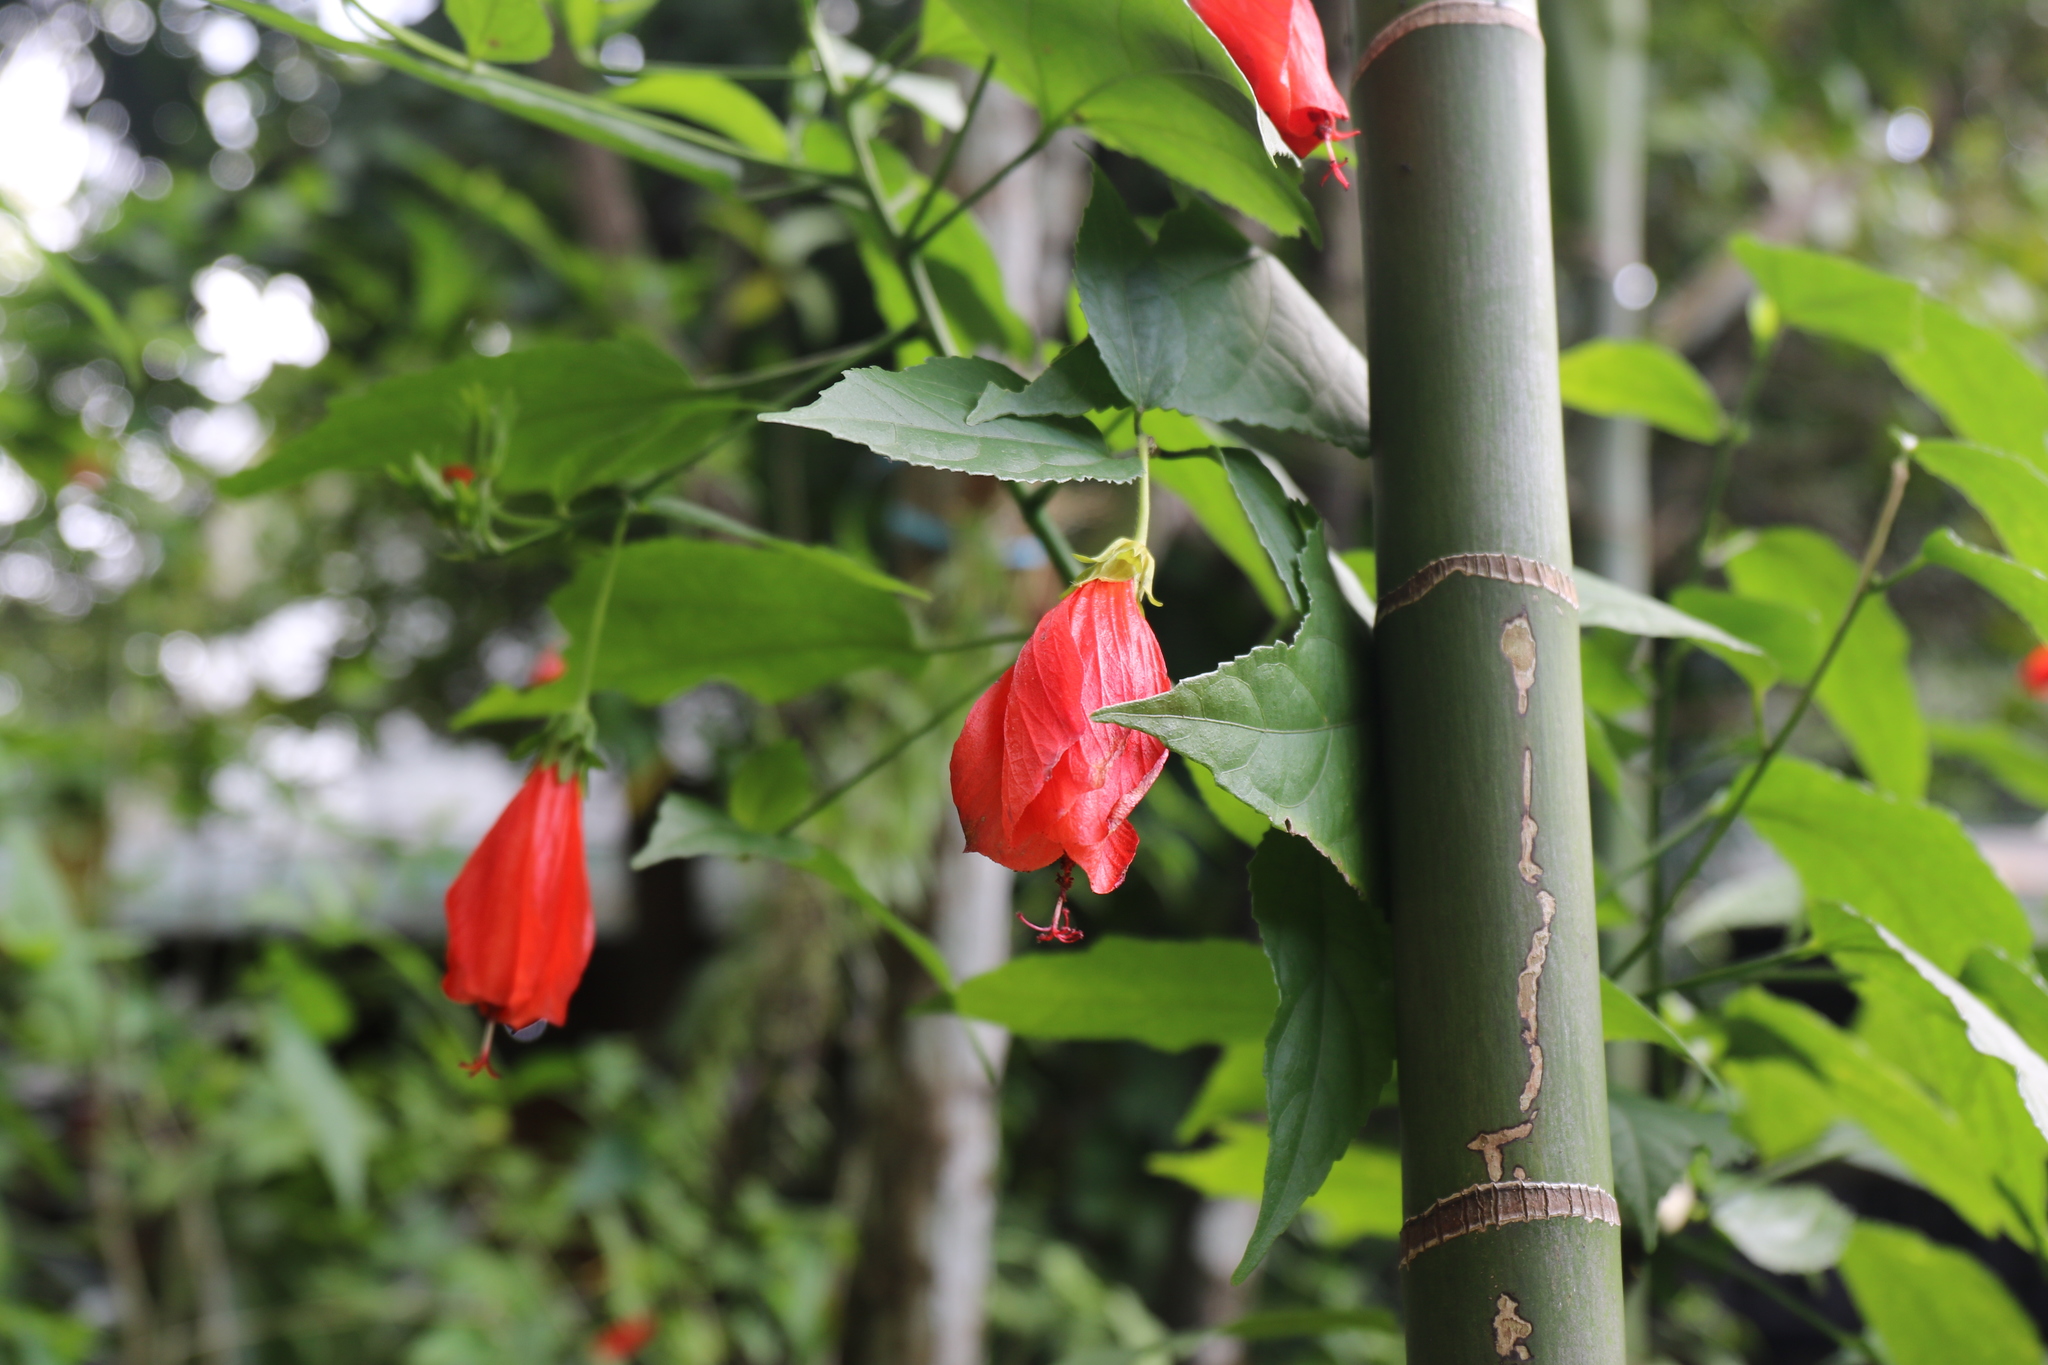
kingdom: Plantae
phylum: Tracheophyta
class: Magnoliopsida
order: Malvales
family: Malvaceae
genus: Malvaviscus
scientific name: Malvaviscus penduliflorus
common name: Mazapan
